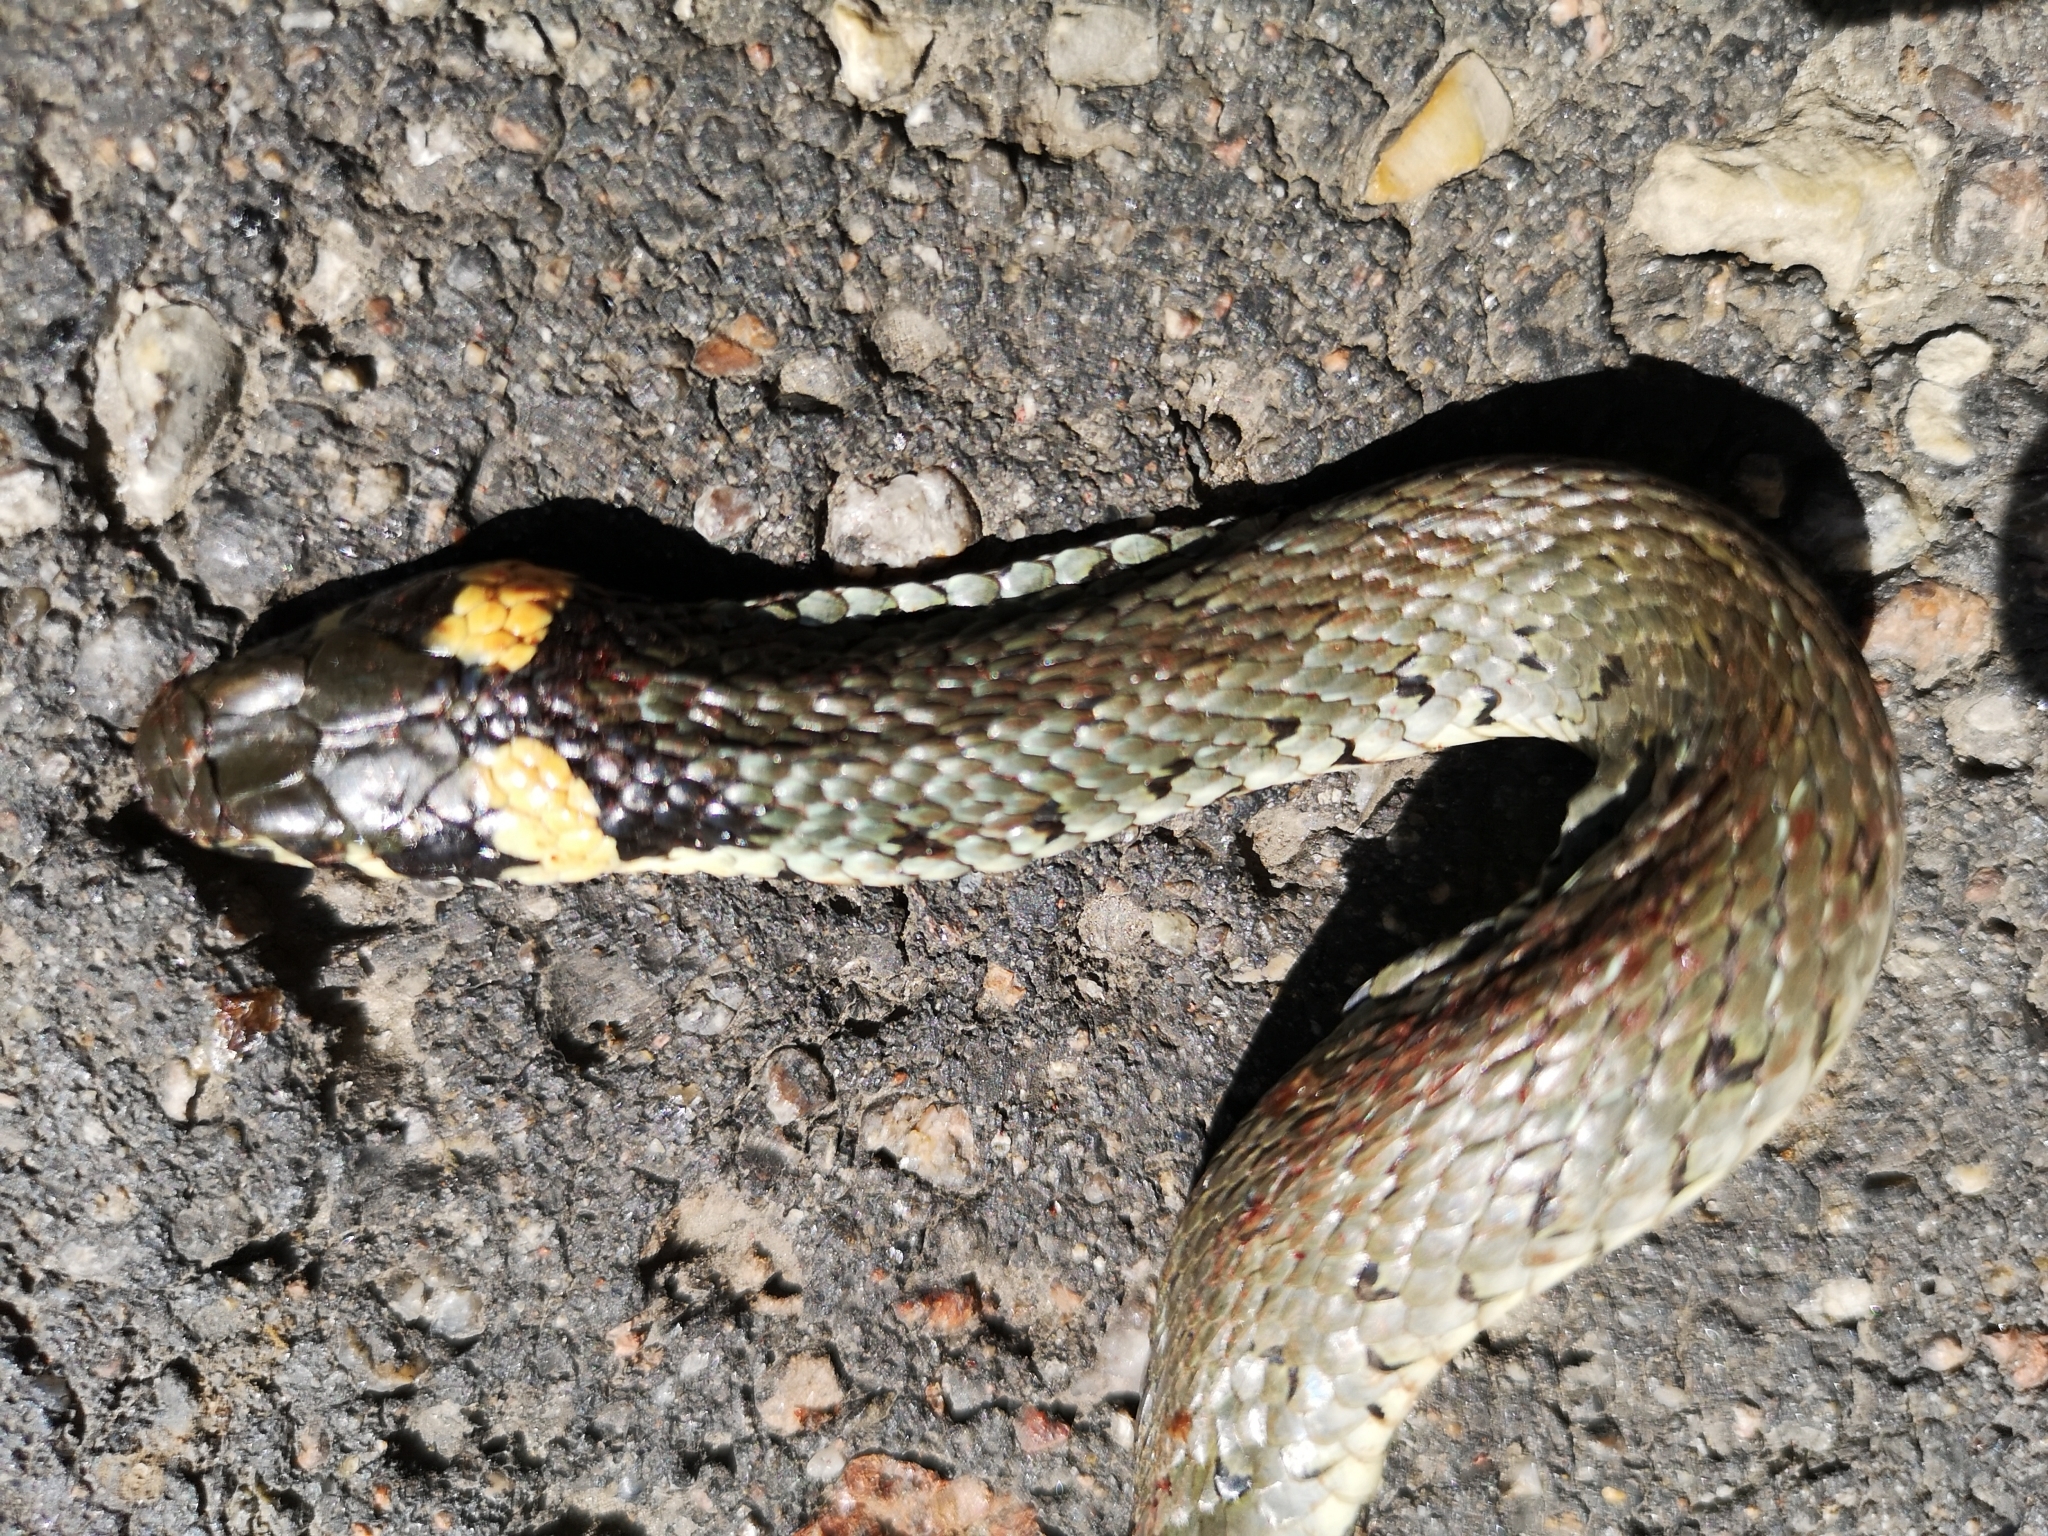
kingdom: Animalia
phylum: Chordata
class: Squamata
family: Colubridae
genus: Natrix
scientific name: Natrix natrix
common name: Grass snake
